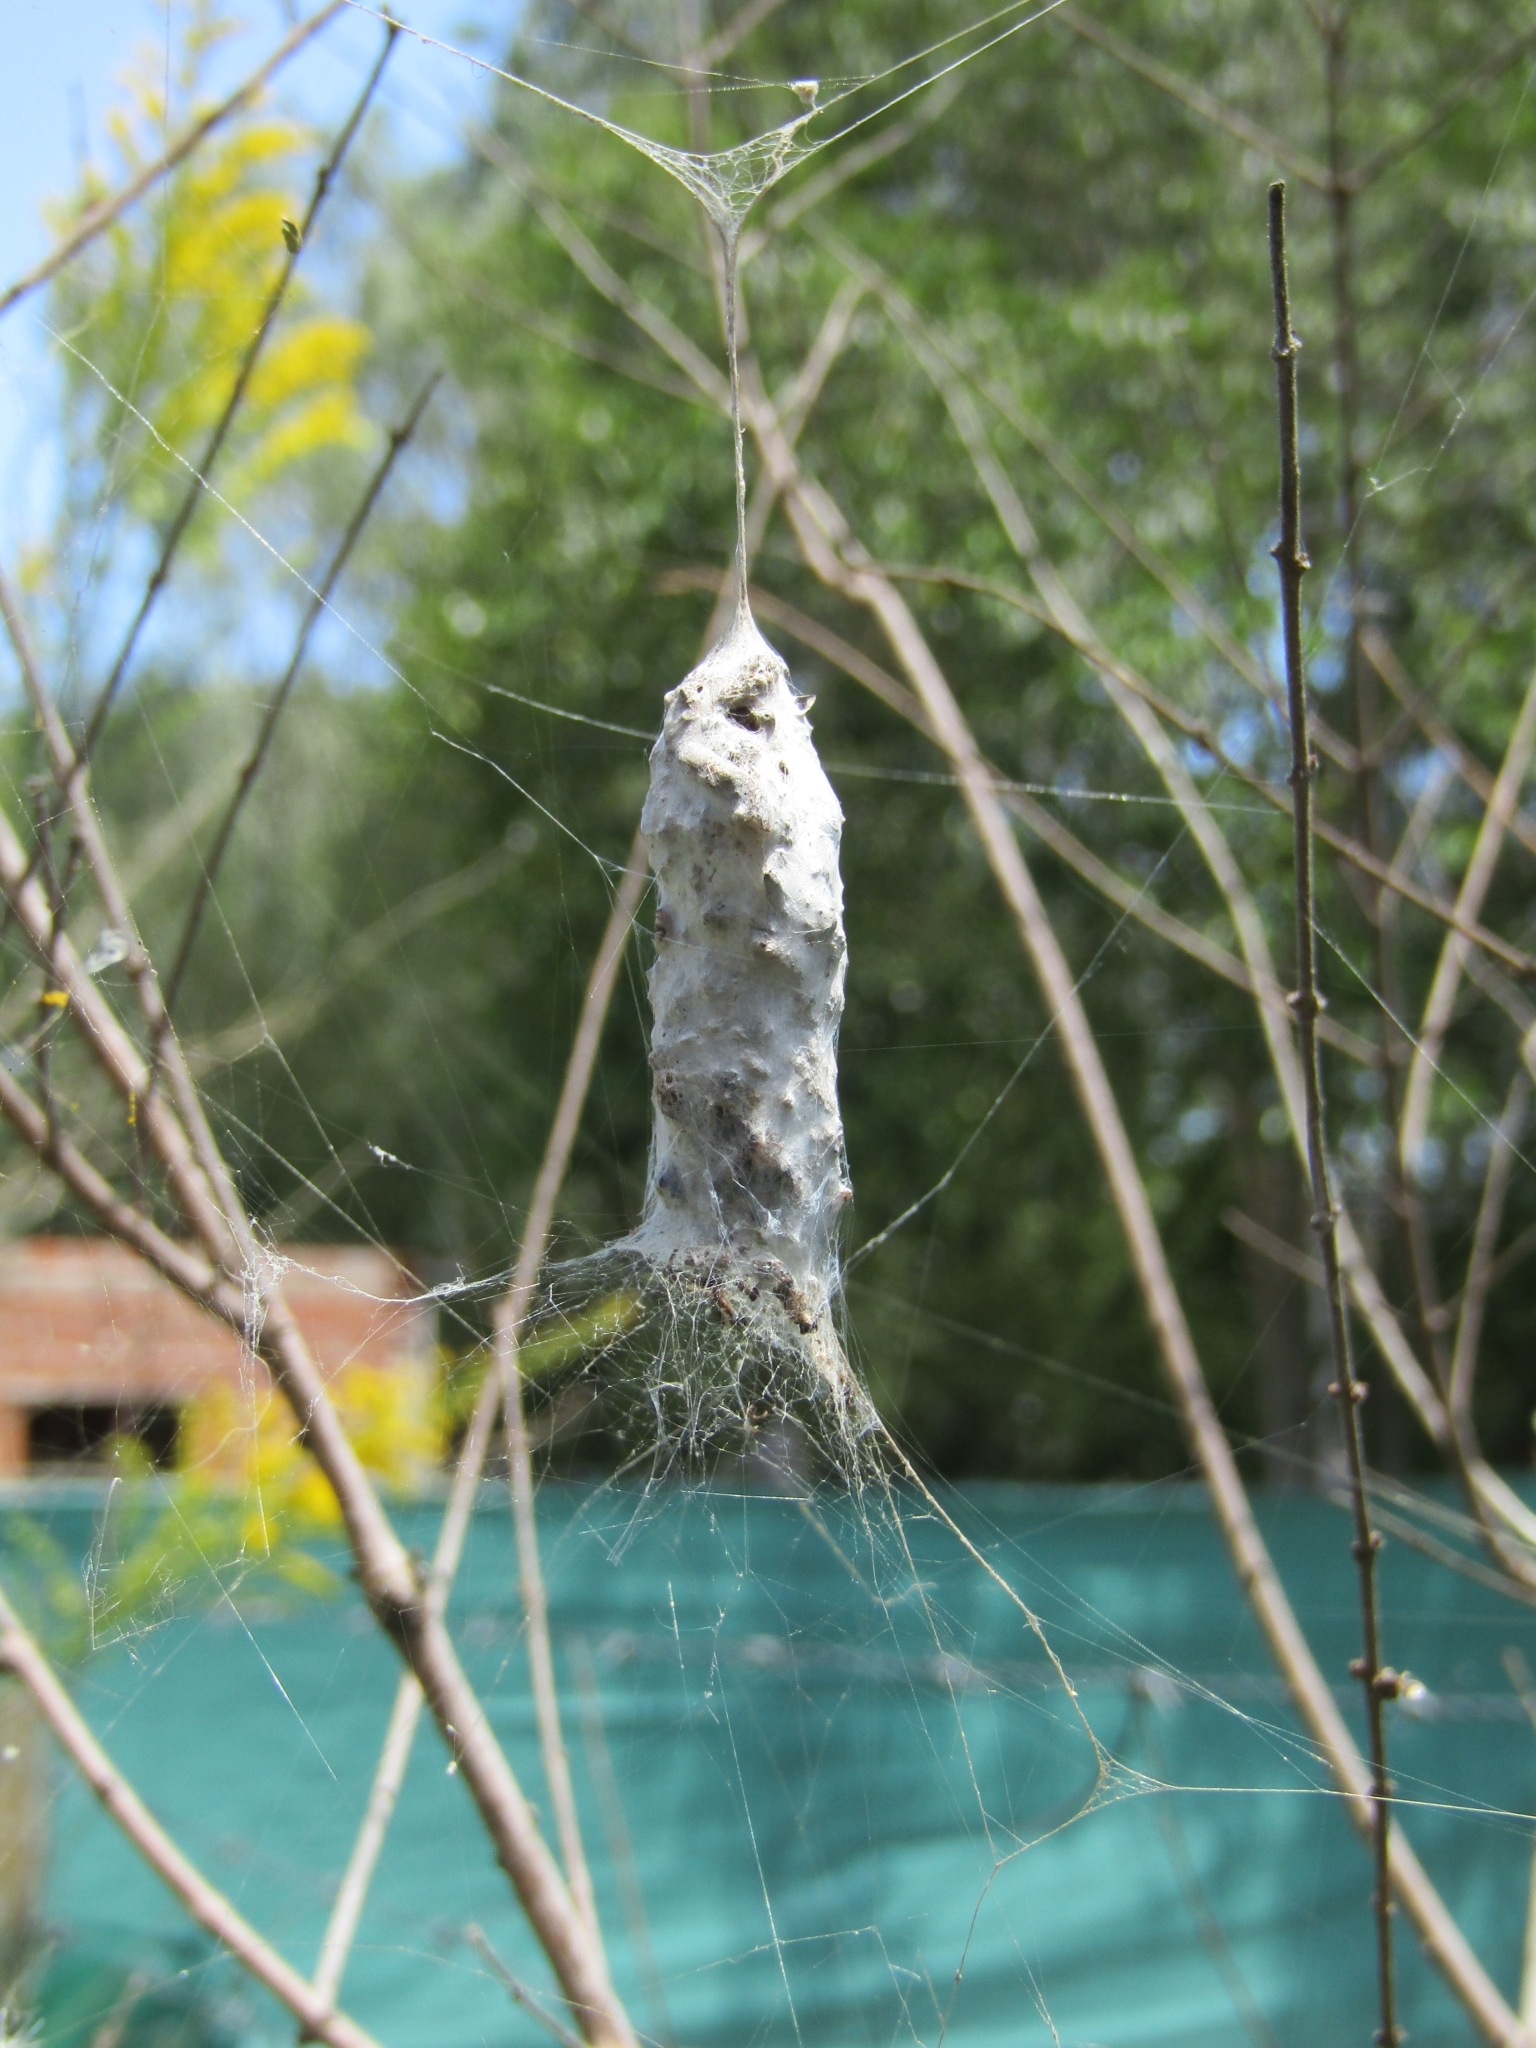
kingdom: Animalia
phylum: Arthropoda
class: Arachnida
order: Araneae
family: Araneidae
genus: Metepeira
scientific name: Metepeira
